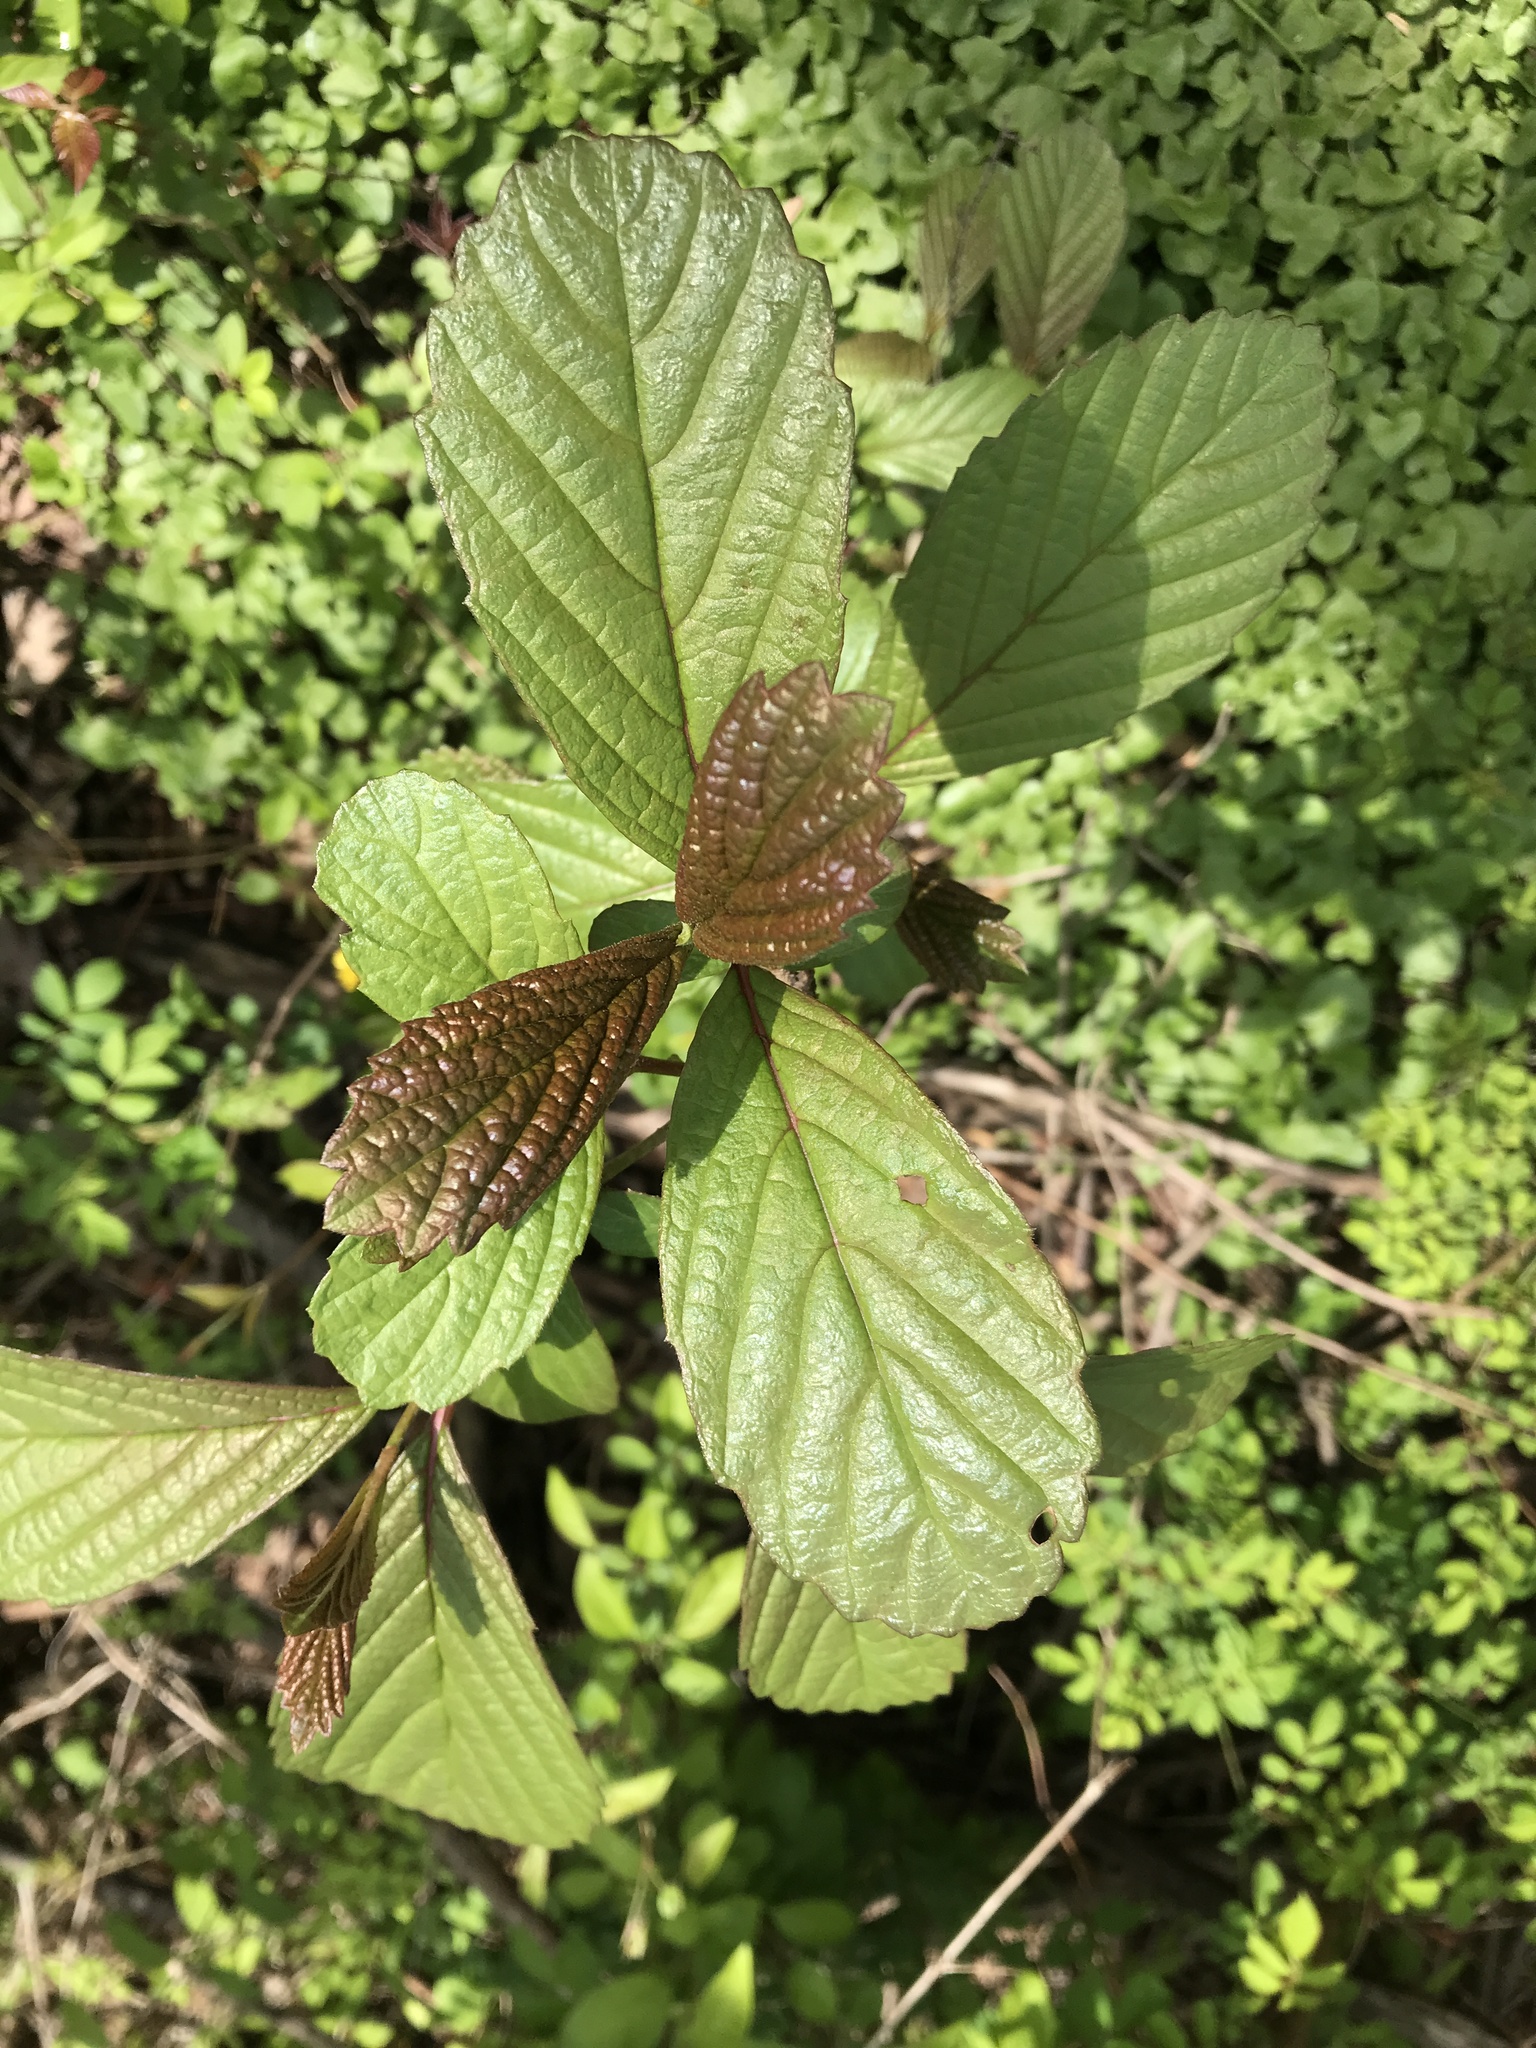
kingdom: Plantae
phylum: Tracheophyta
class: Magnoliopsida
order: Dipsacales
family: Viburnaceae
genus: Viburnum
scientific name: Viburnum sieboldii
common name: Siebold's arrowwood
